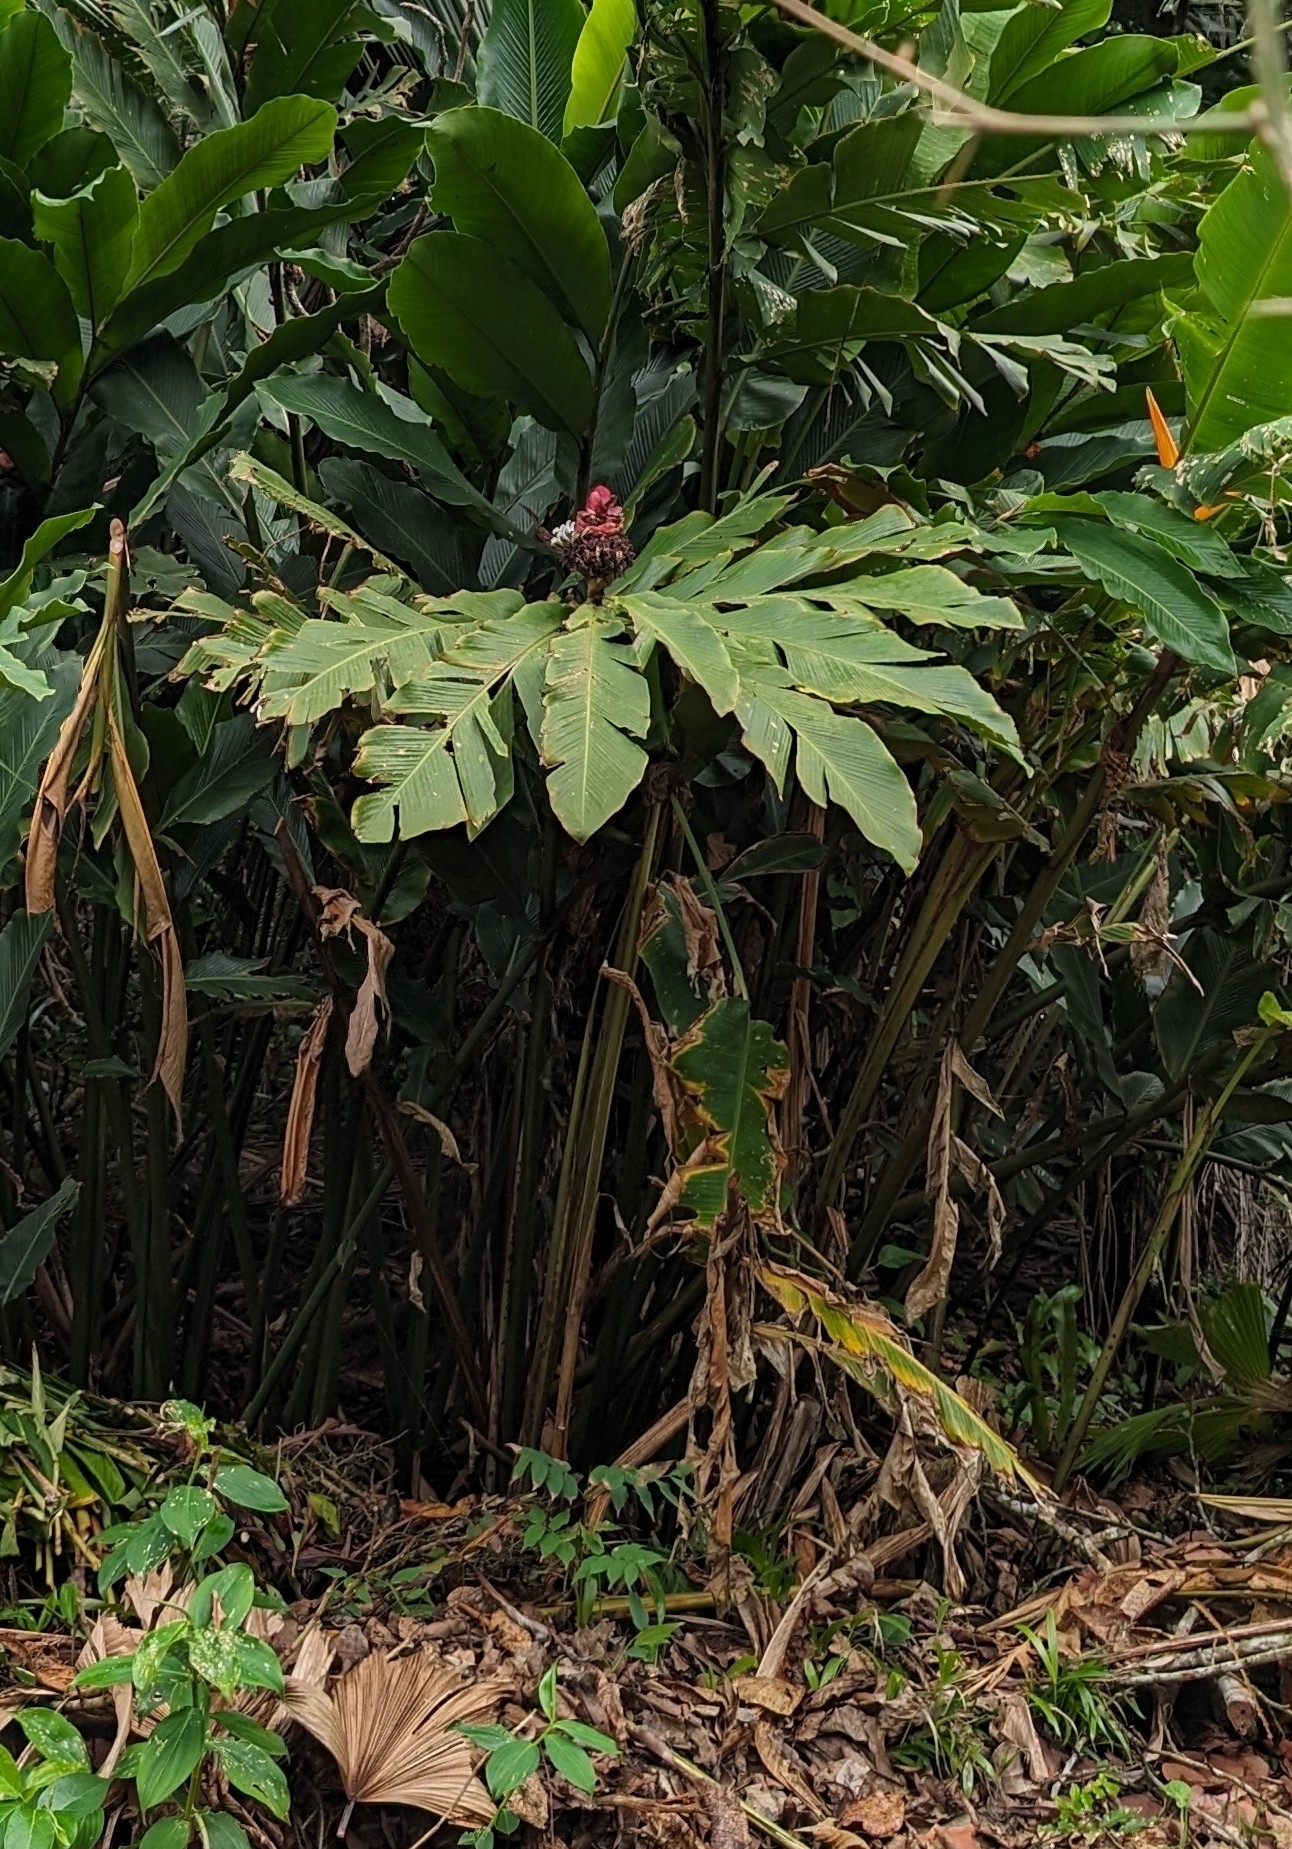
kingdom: Plantae
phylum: Tracheophyta
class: Liliopsida
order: Zingiberales
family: Zingiberaceae
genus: Alpinia
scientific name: Alpinia purpurata
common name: Red ginger
